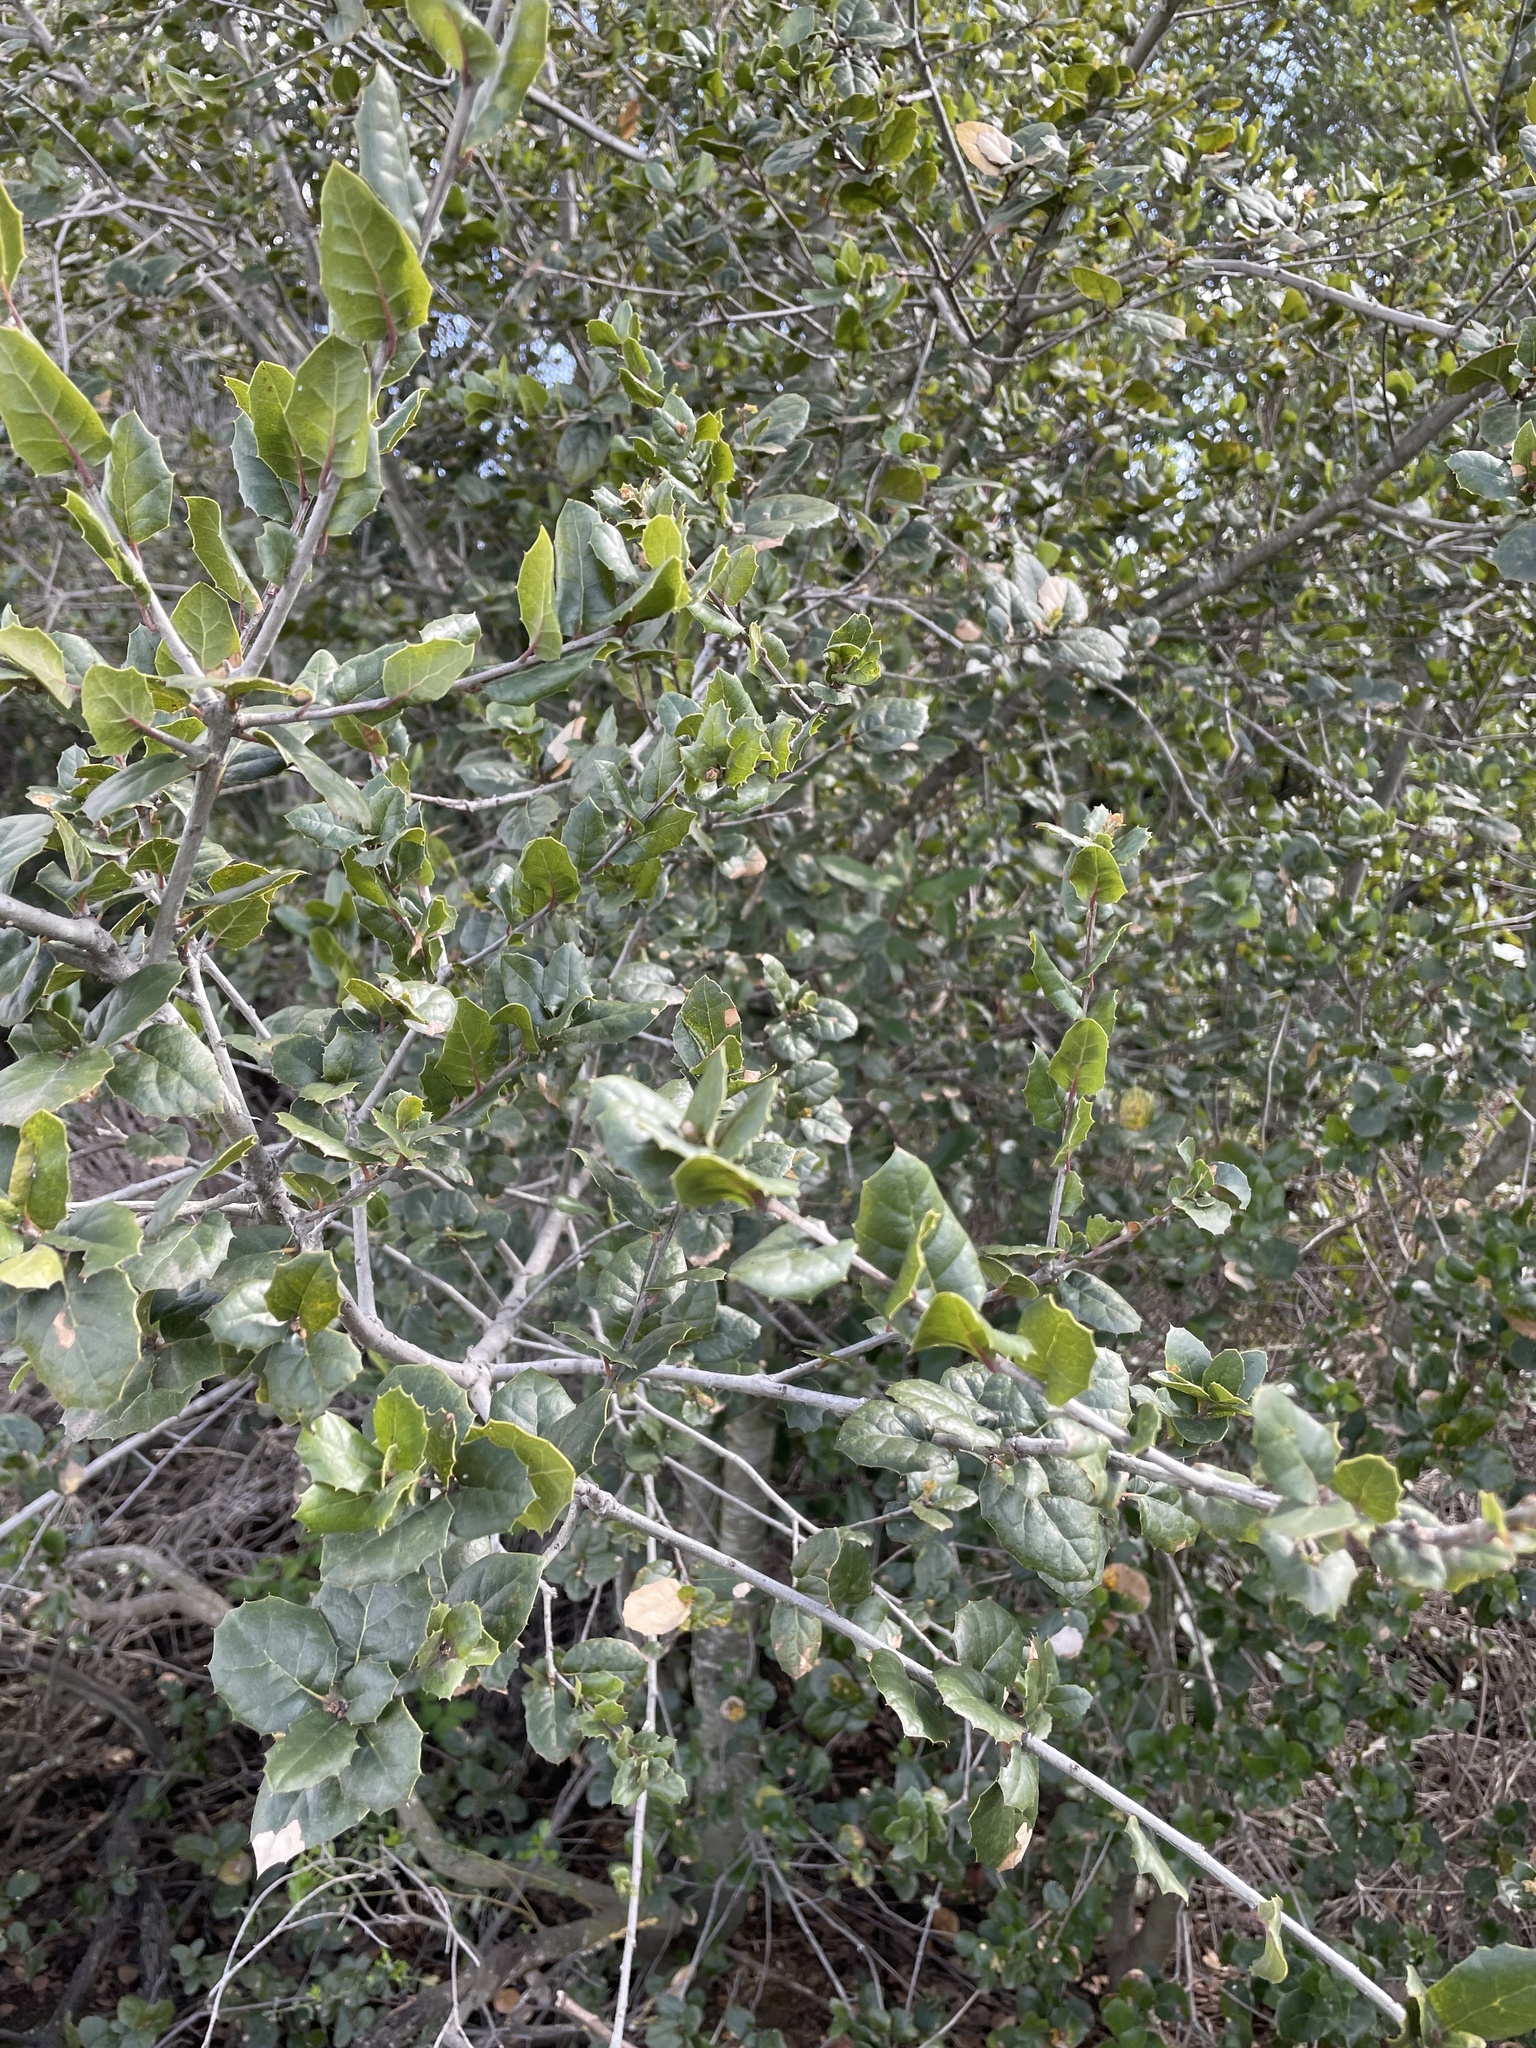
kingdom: Plantae
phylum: Tracheophyta
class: Magnoliopsida
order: Fagales
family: Fagaceae
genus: Quercus
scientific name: Quercus agrifolia
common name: California live oak
